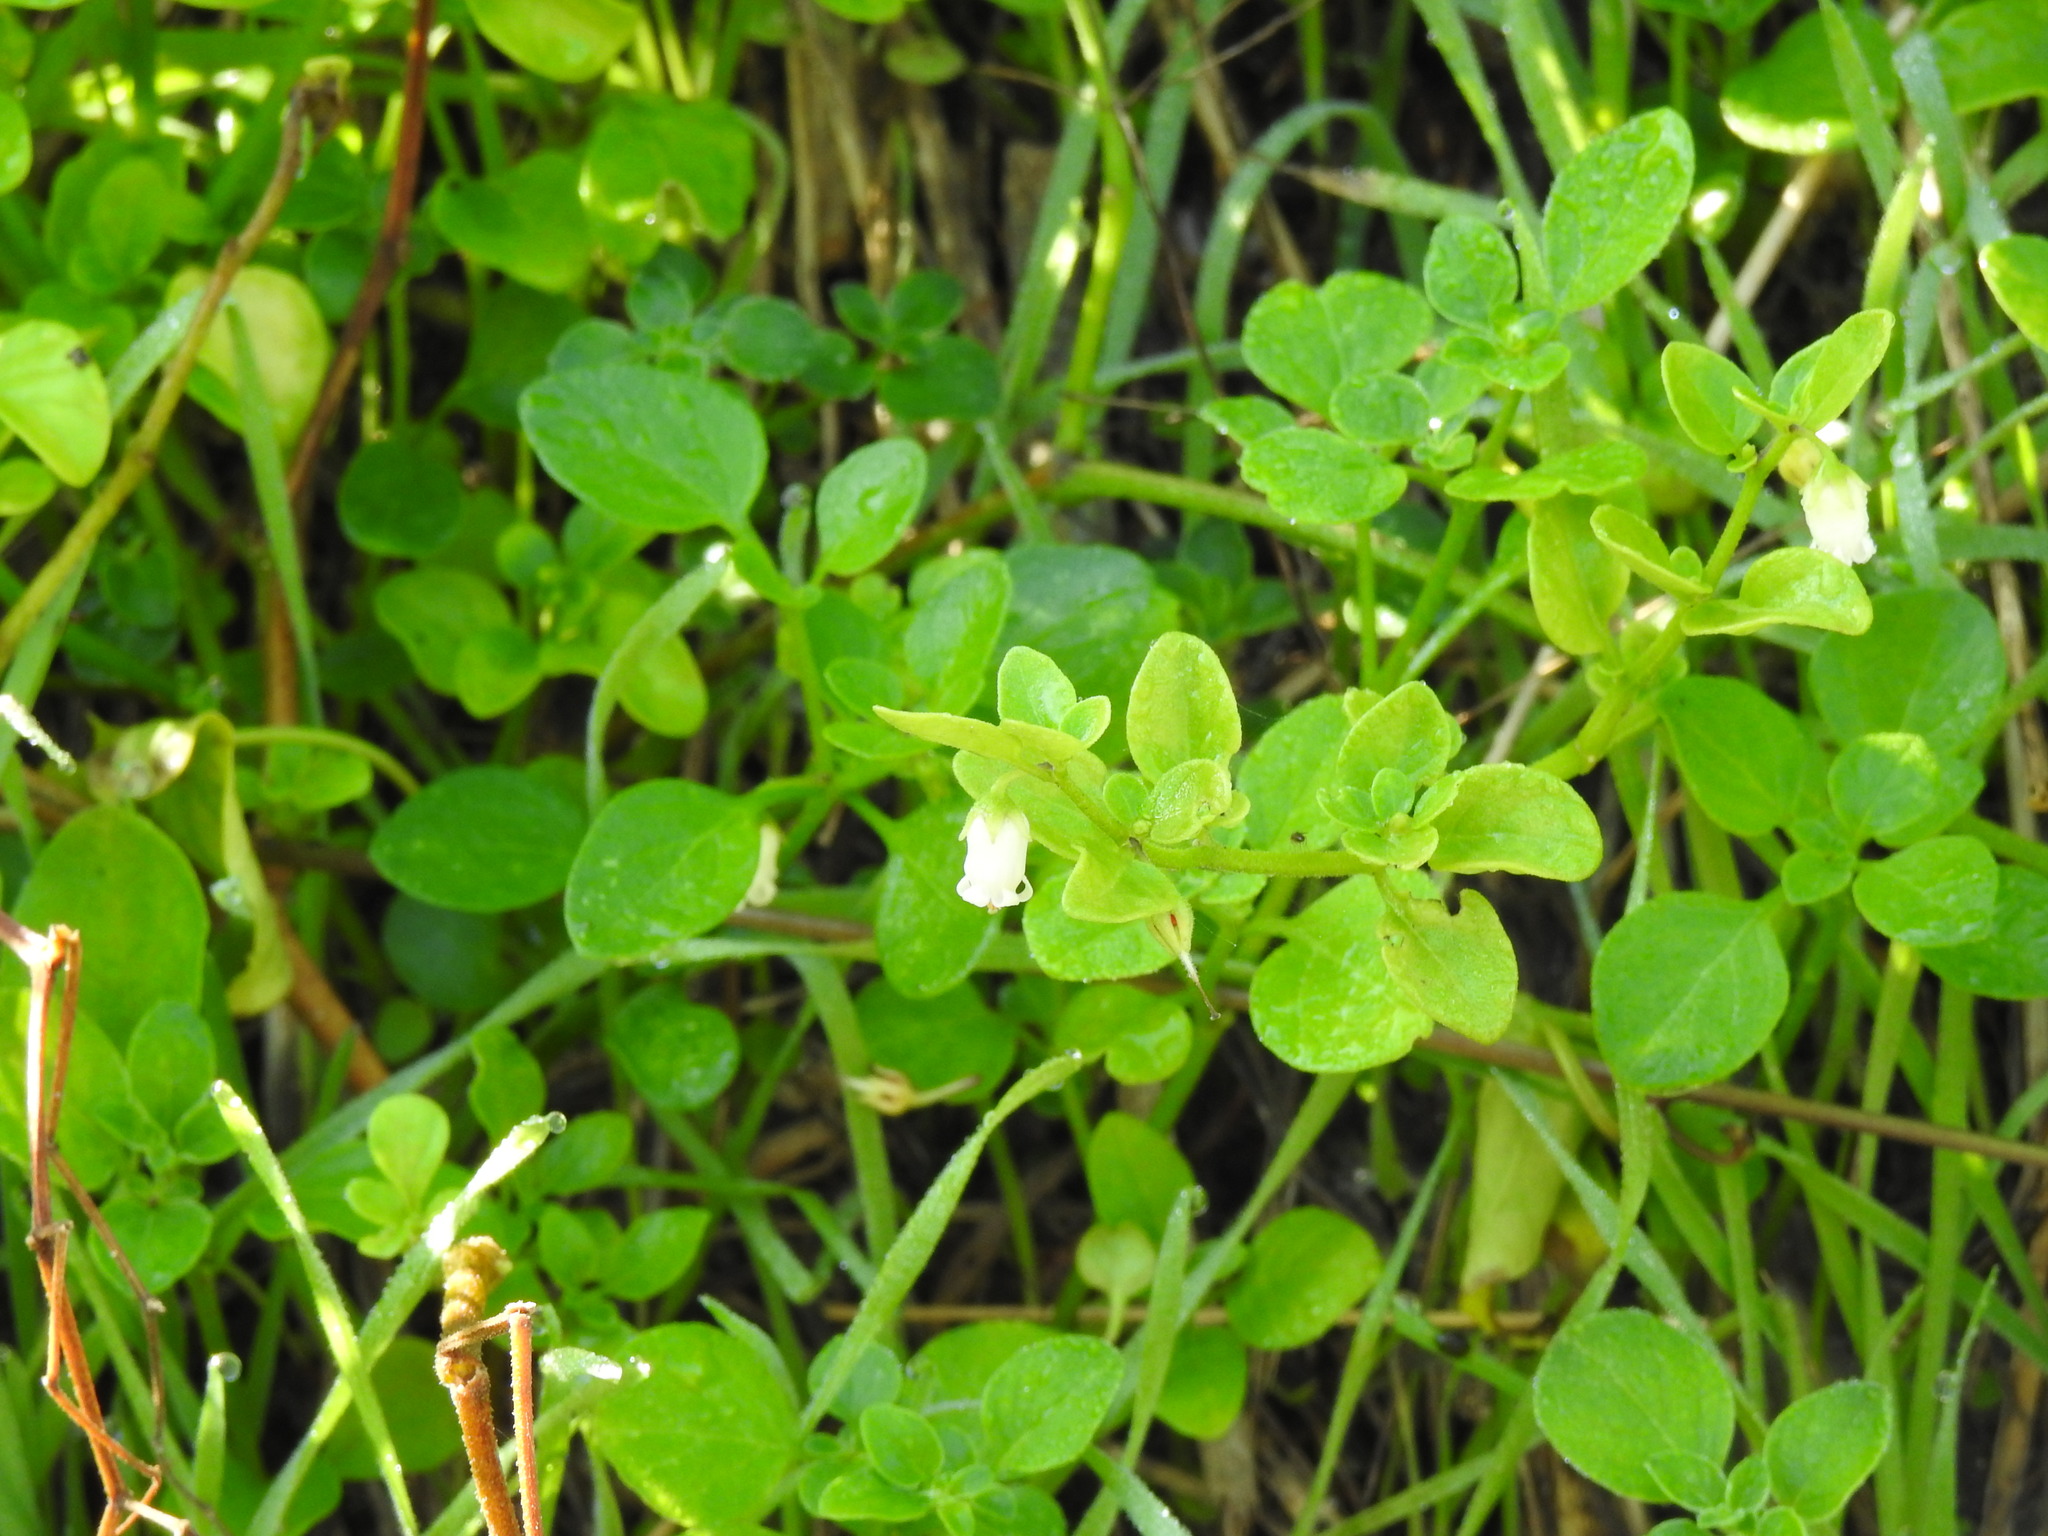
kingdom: Plantae
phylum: Tracheophyta
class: Magnoliopsida
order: Solanales
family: Solanaceae
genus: Salpichroa
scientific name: Salpichroa origanifolia
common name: Lily-of-the-valley-vine
